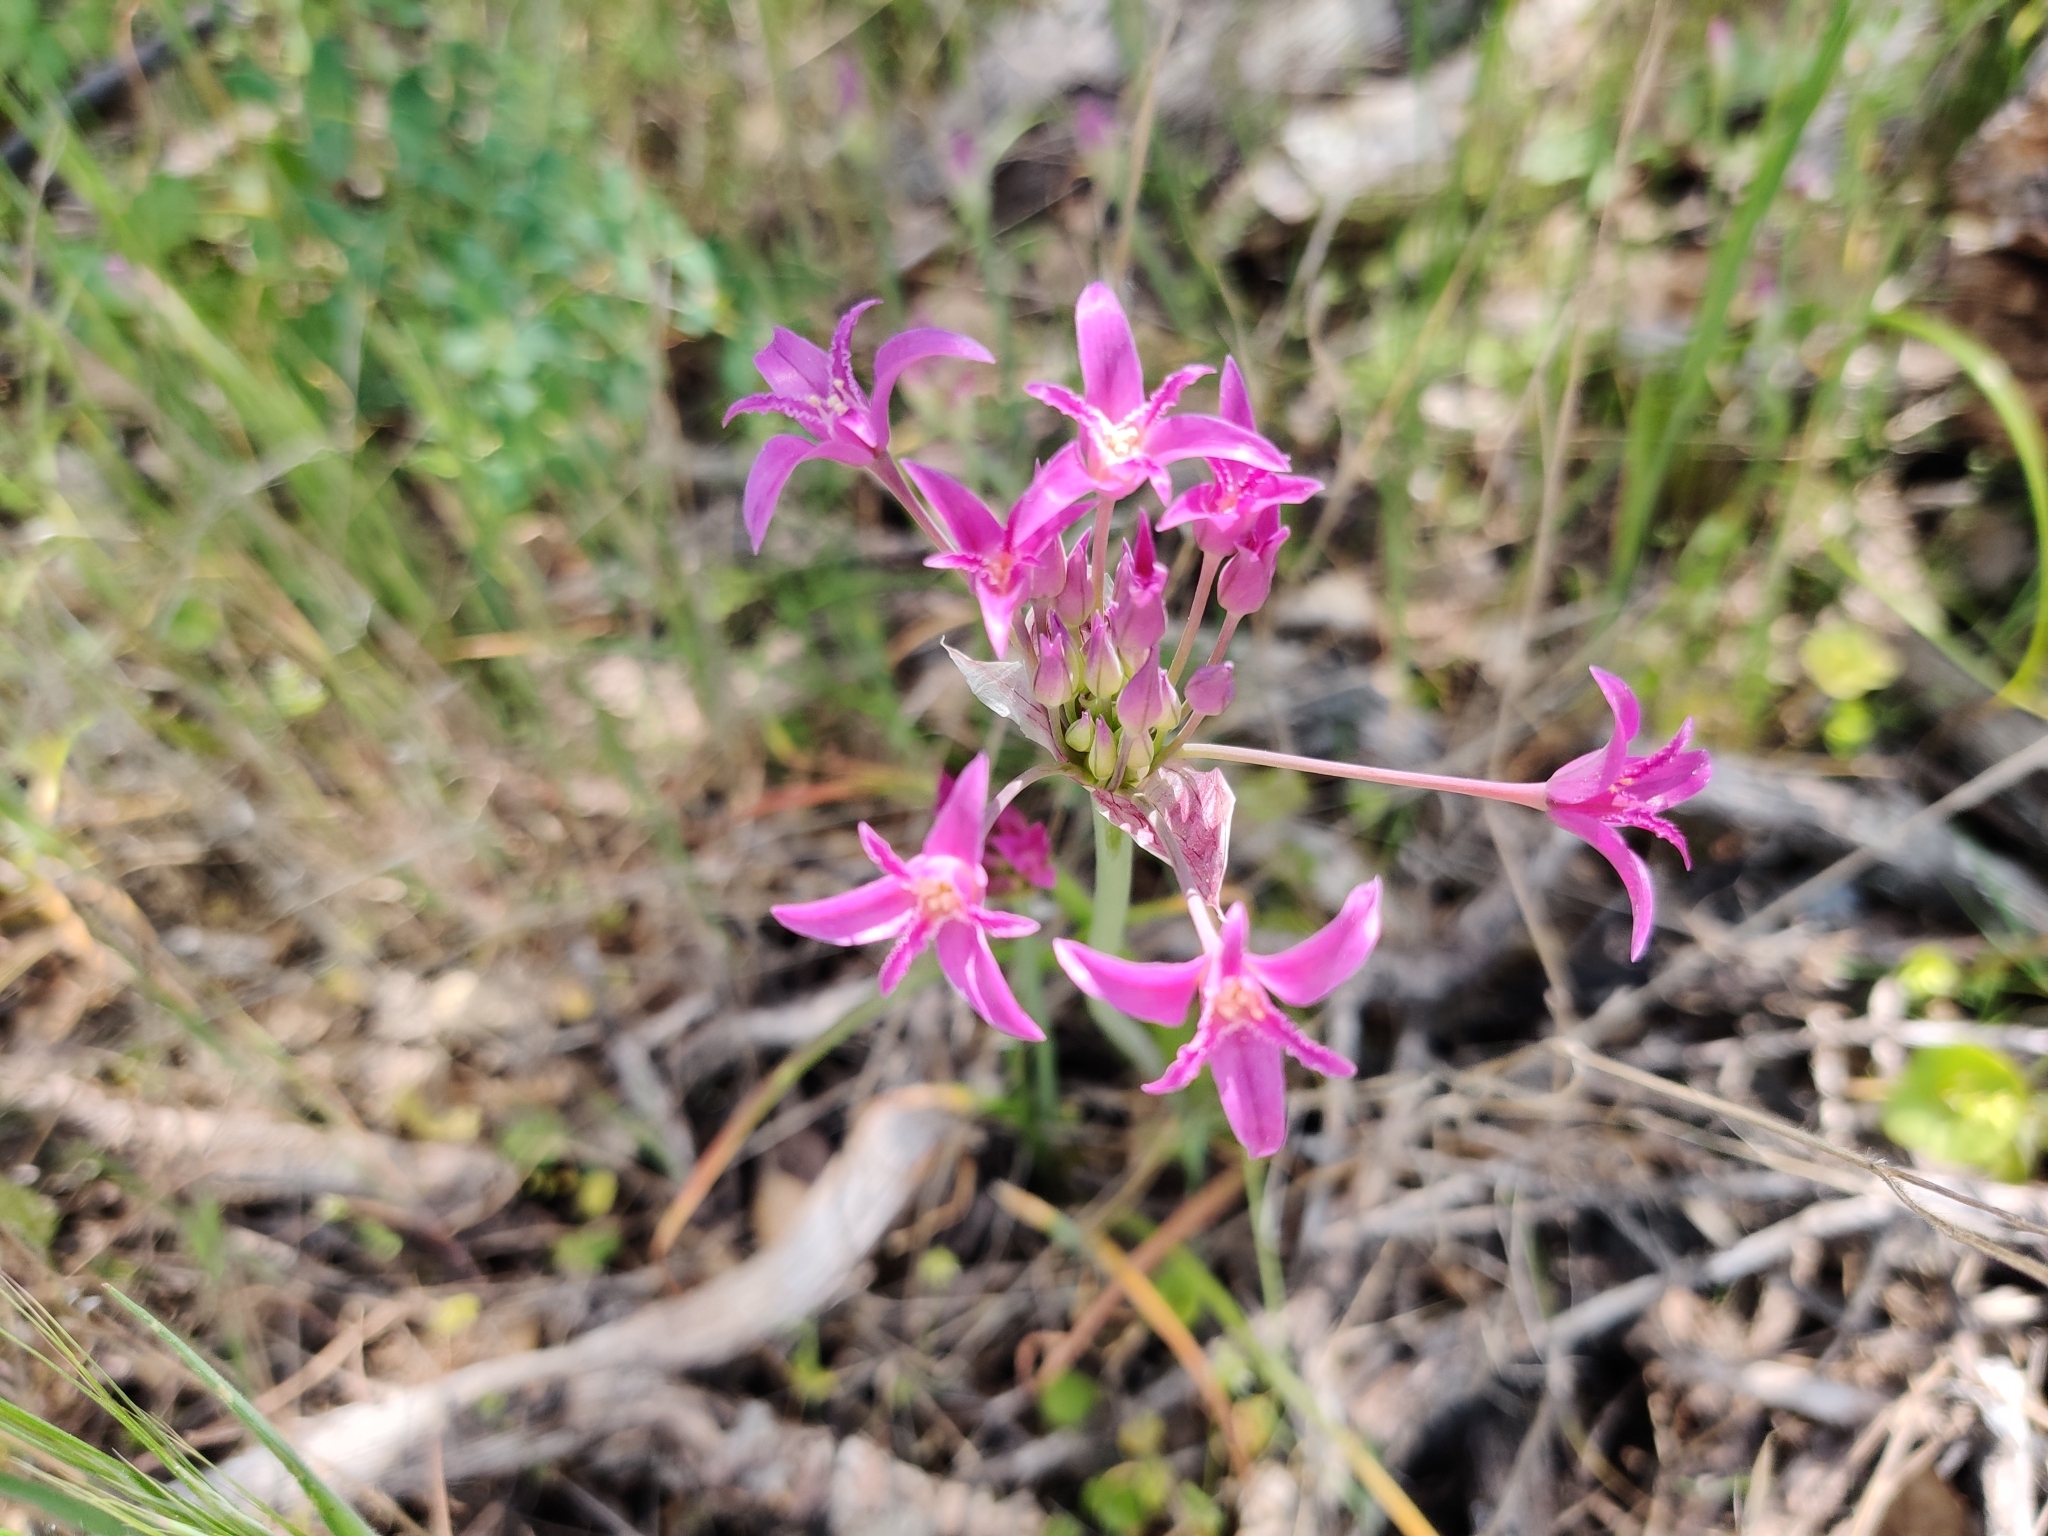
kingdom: Plantae
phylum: Tracheophyta
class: Liliopsida
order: Asparagales
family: Amaryllidaceae
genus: Allium
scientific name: Allium crispum
